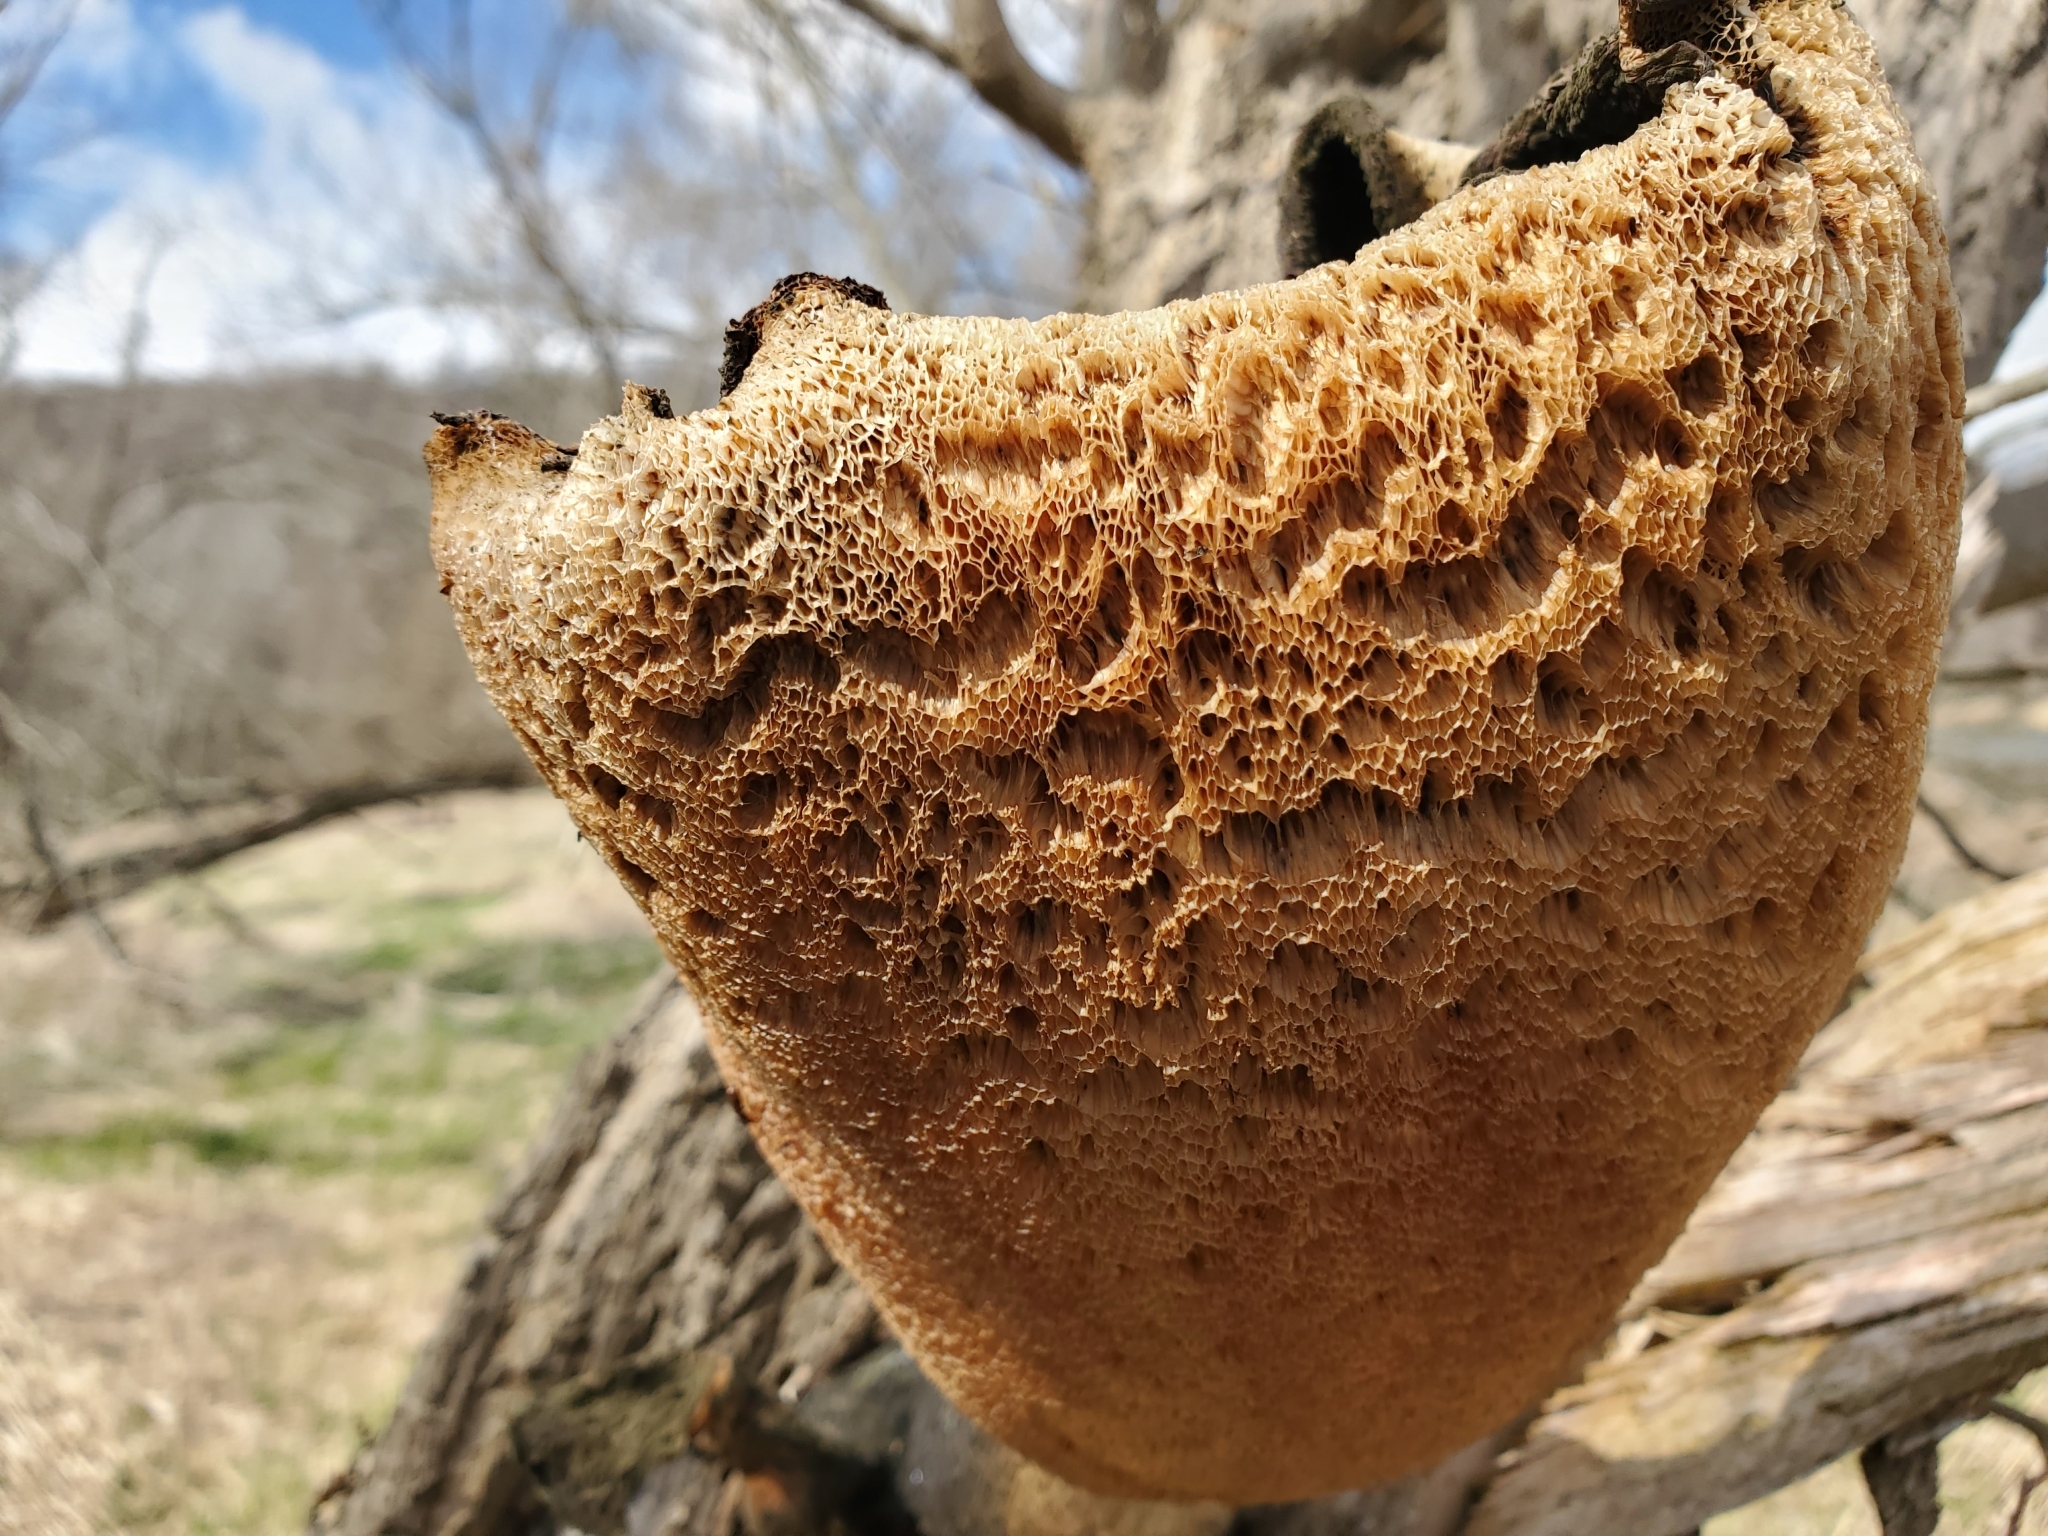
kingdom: Fungi
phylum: Basidiomycota
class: Agaricomycetes
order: Polyporales
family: Polyporaceae
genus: Cerioporus
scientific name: Cerioporus squamosus
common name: Dryad's saddle
